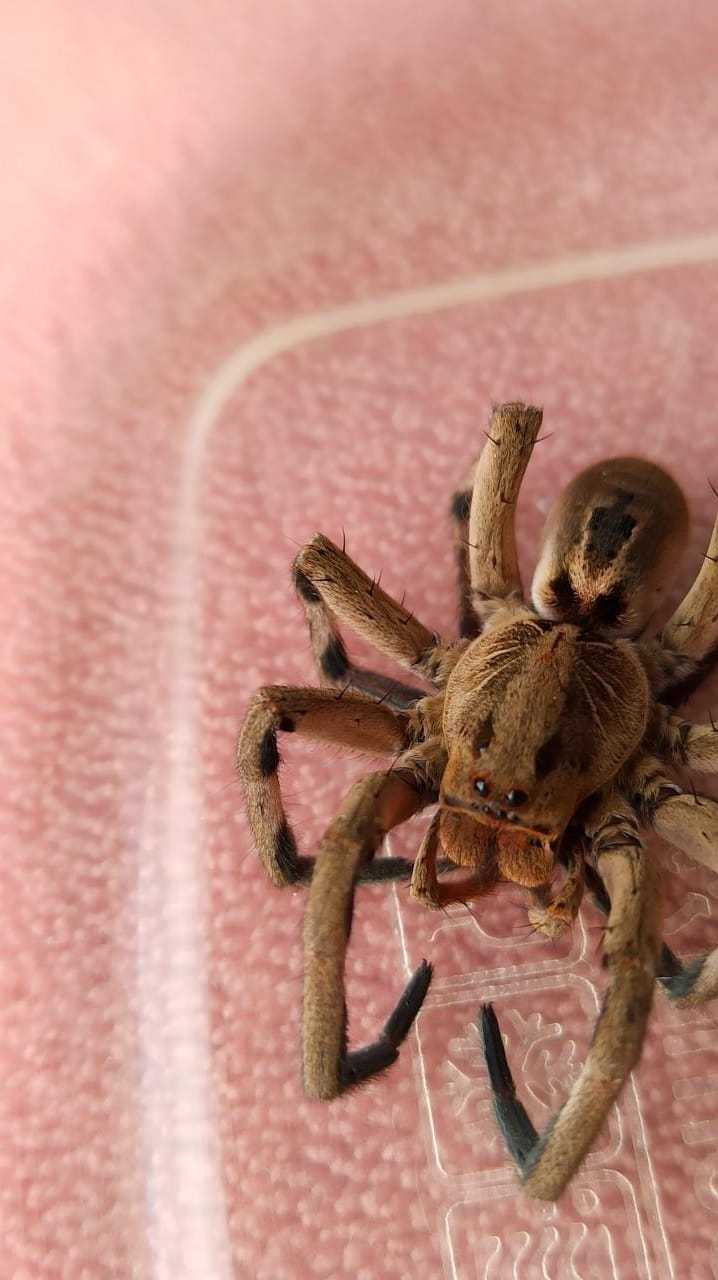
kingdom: Animalia
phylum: Arthropoda
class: Arachnida
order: Araneae
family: Lycosidae
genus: Lycosa
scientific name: Lycosa erythrognatha
